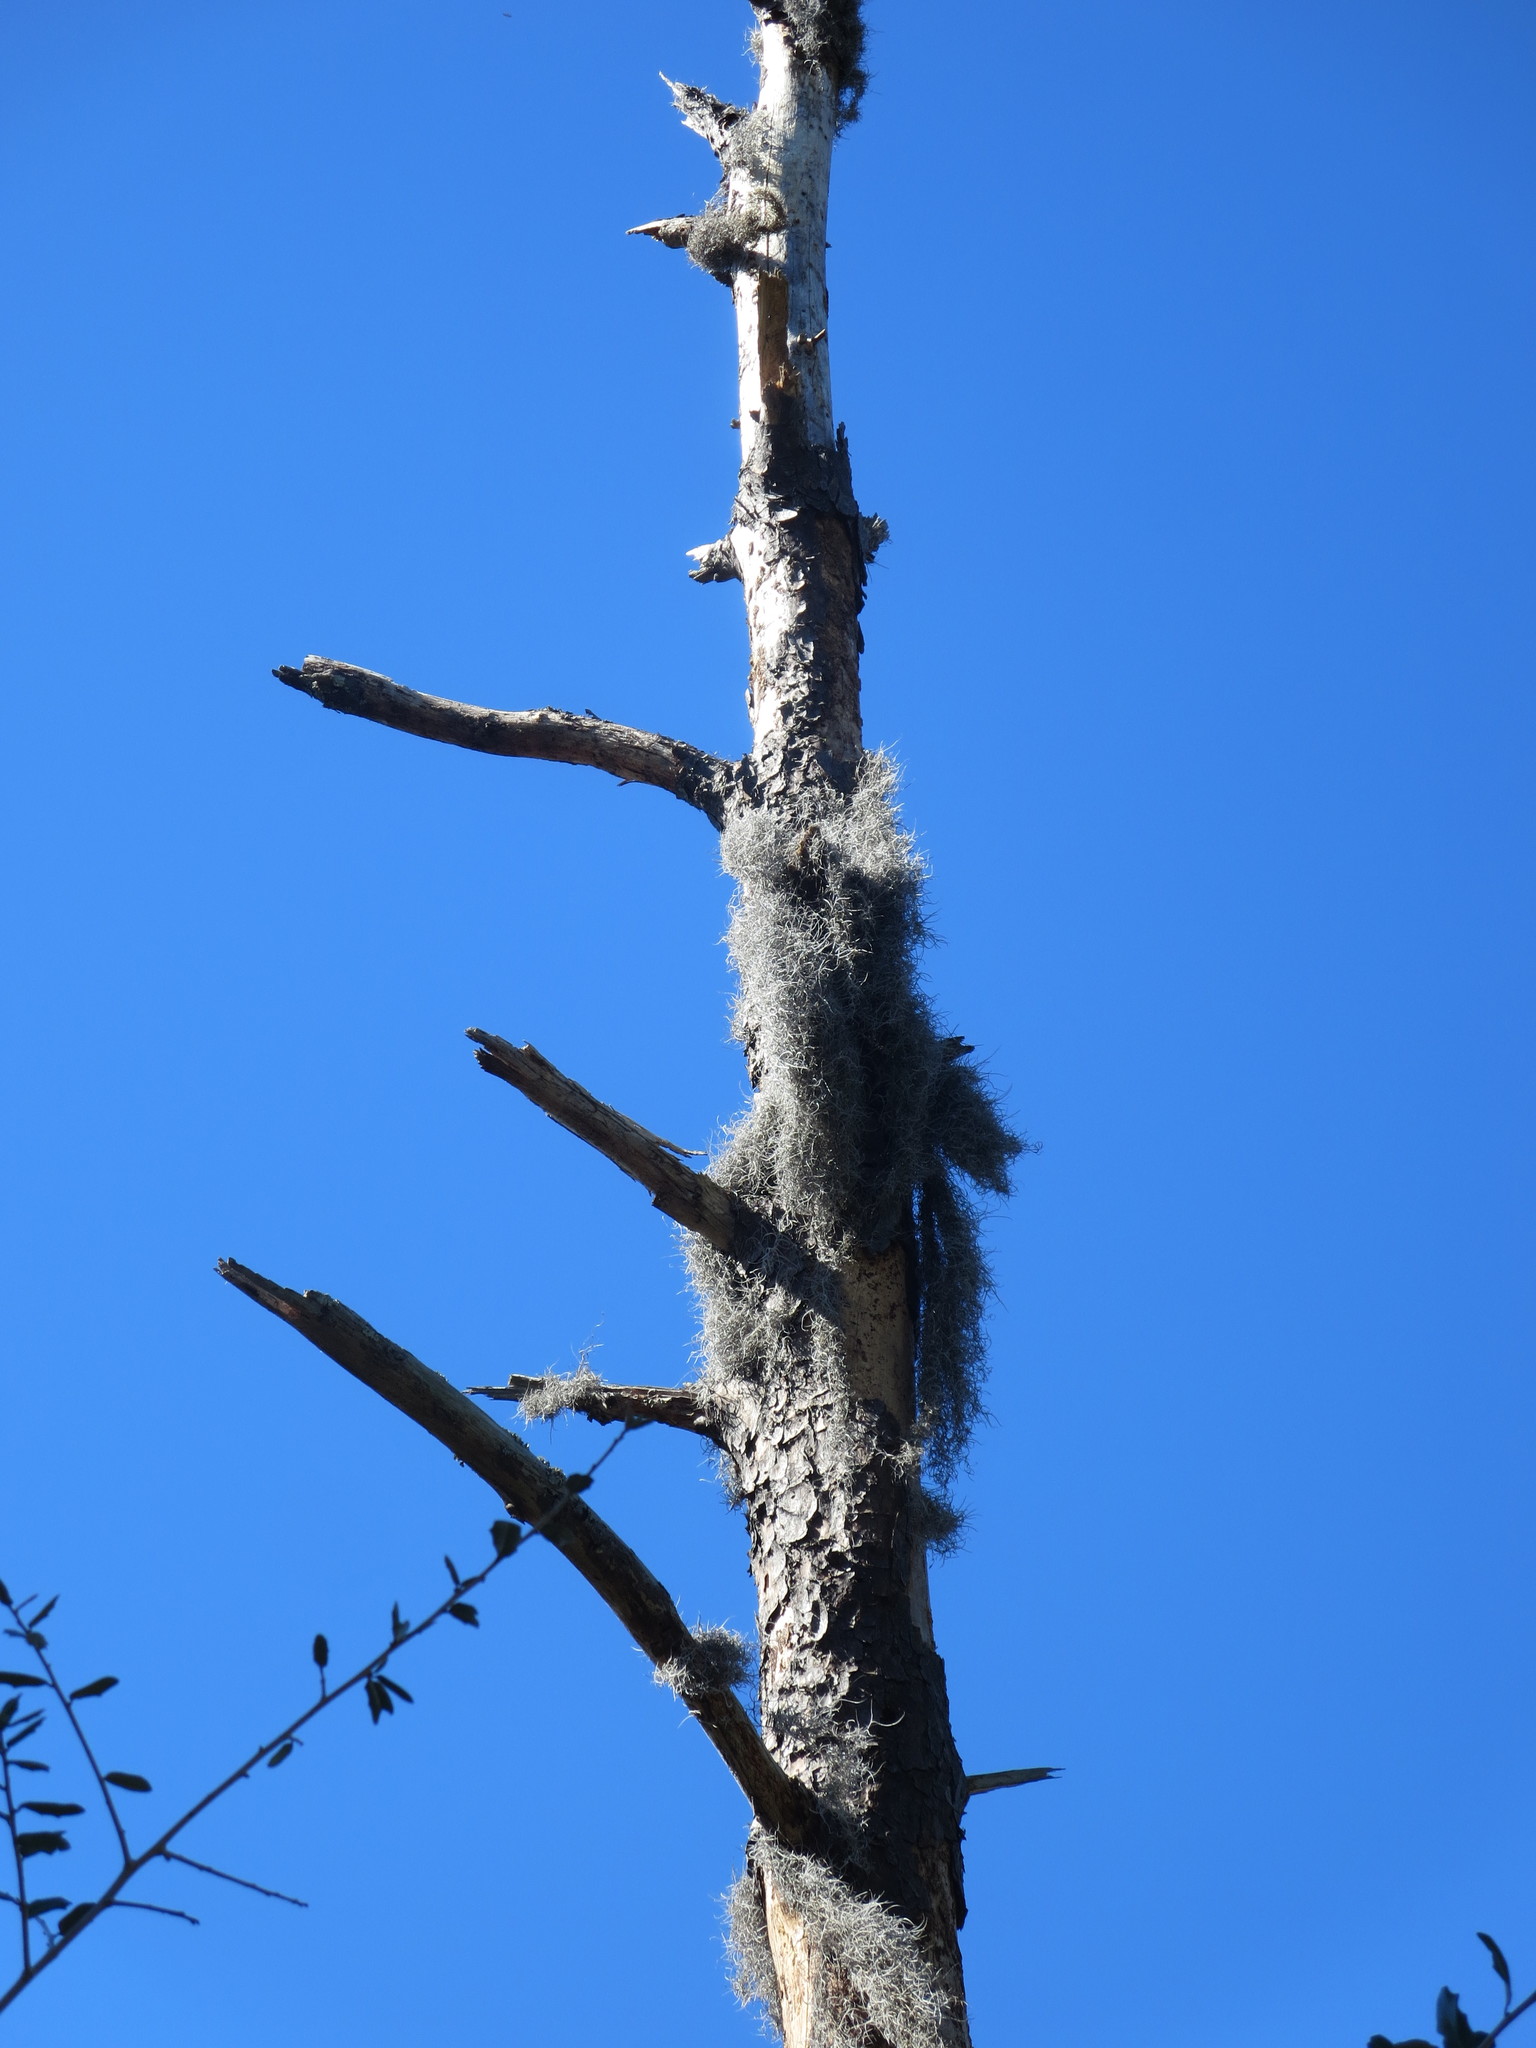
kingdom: Plantae
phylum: Tracheophyta
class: Liliopsida
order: Poales
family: Bromeliaceae
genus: Tillandsia
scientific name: Tillandsia usneoides
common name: Spanish moss
